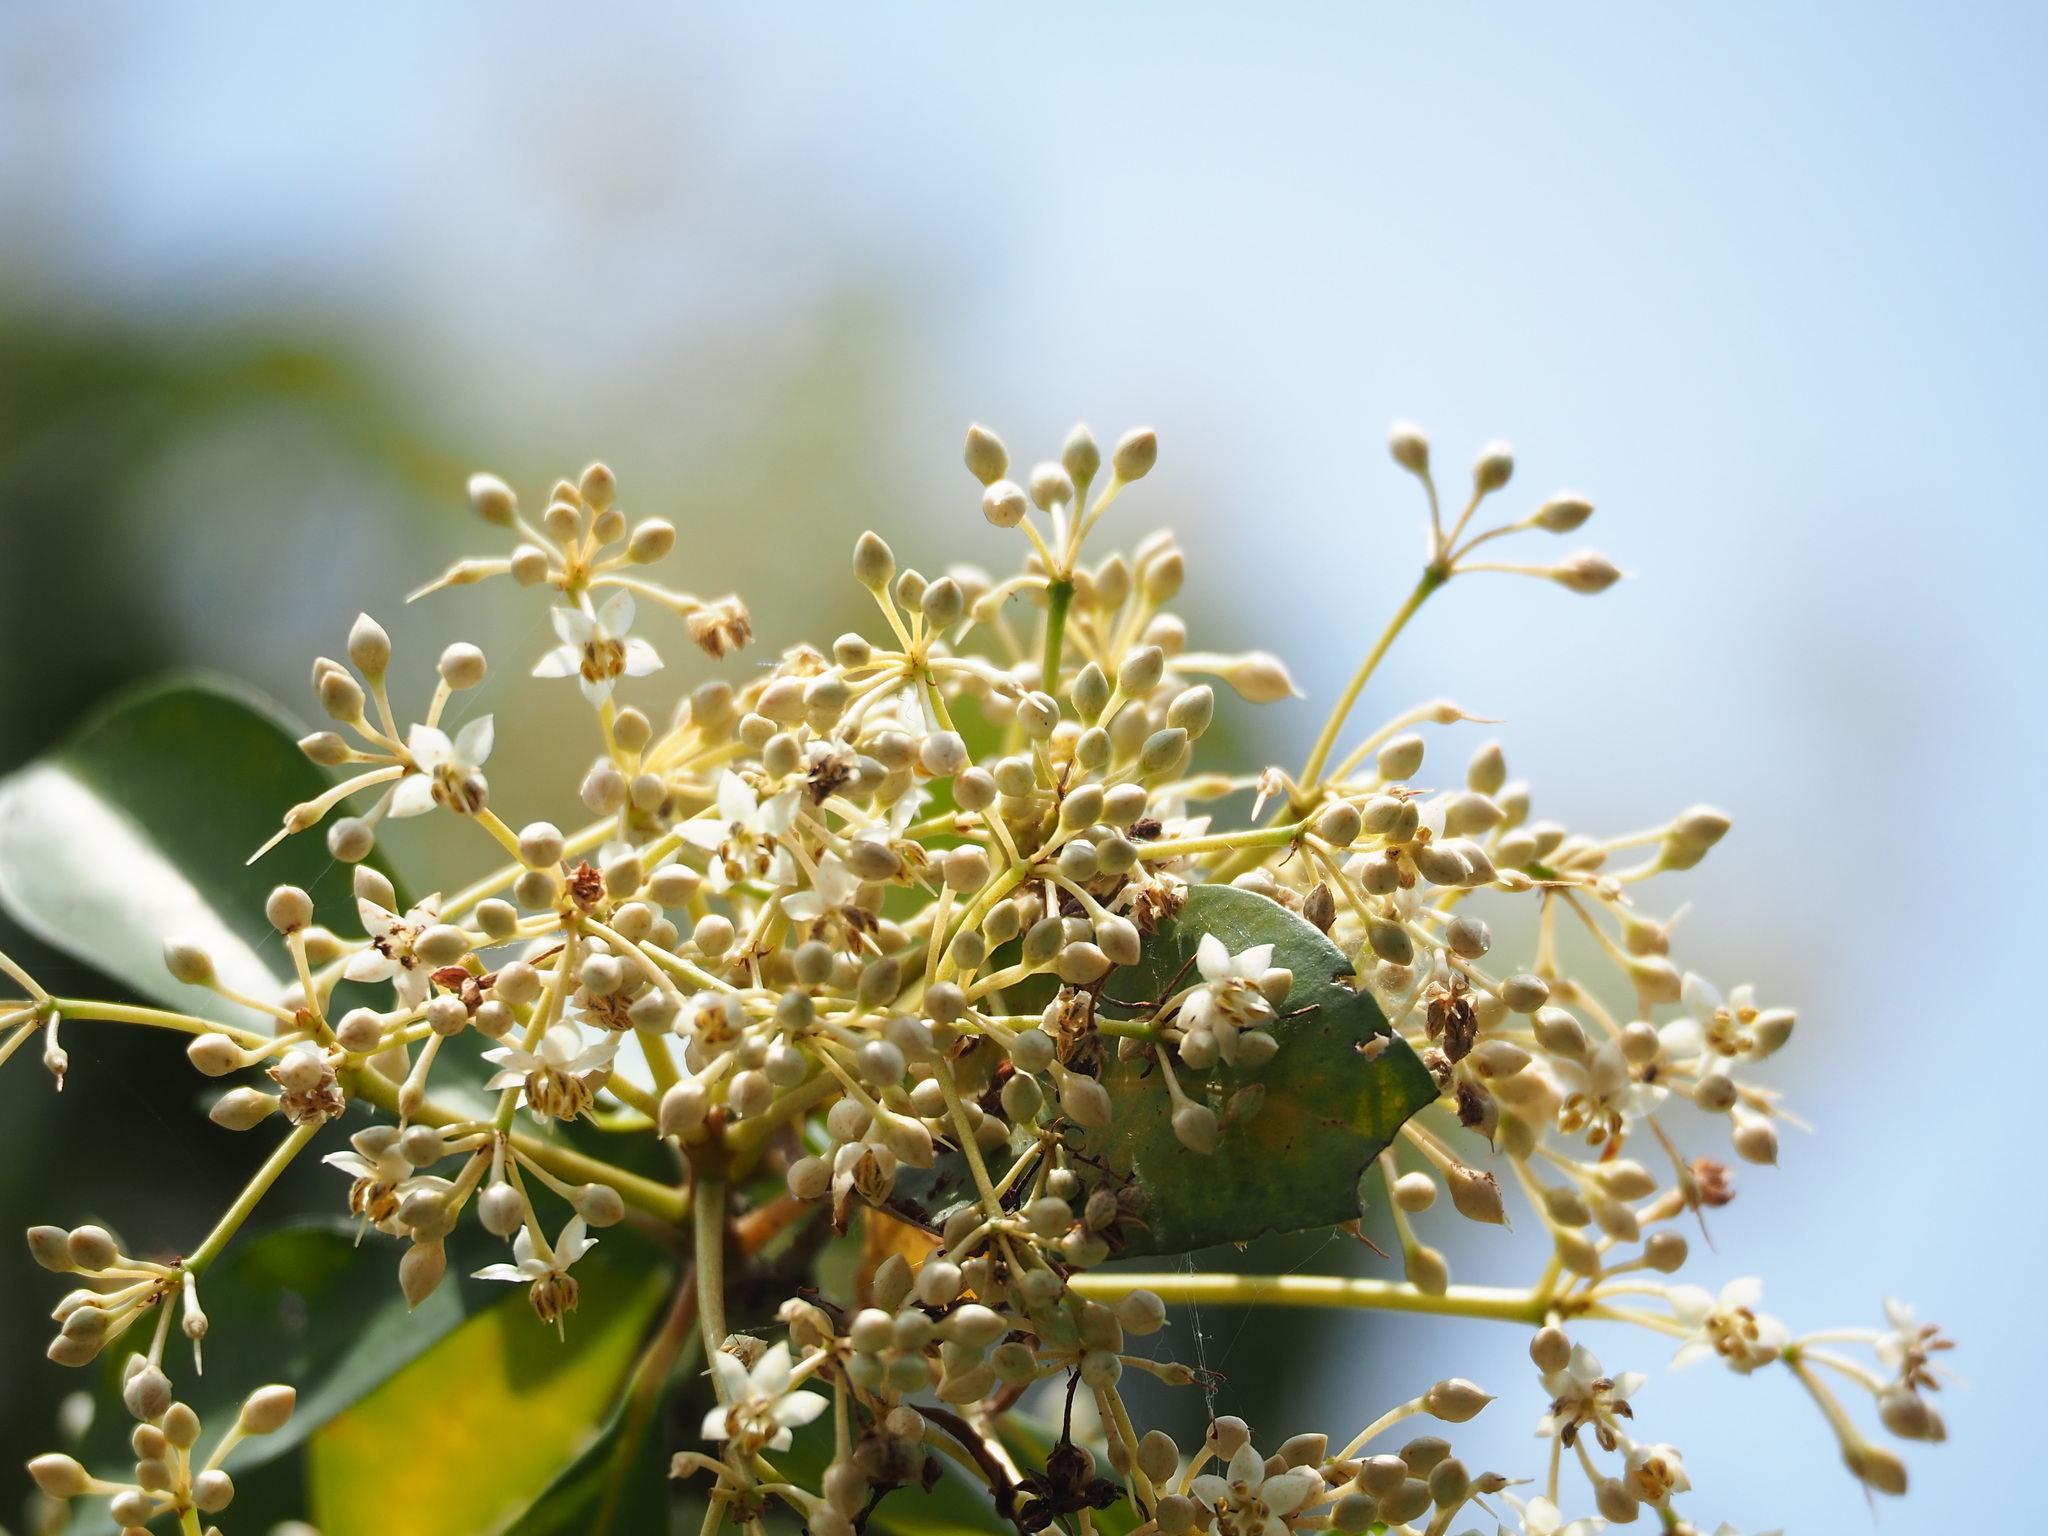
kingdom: Plantae
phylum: Tracheophyta
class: Magnoliopsida
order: Ericales
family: Primulaceae
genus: Ardisia
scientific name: Ardisia sieboldii
